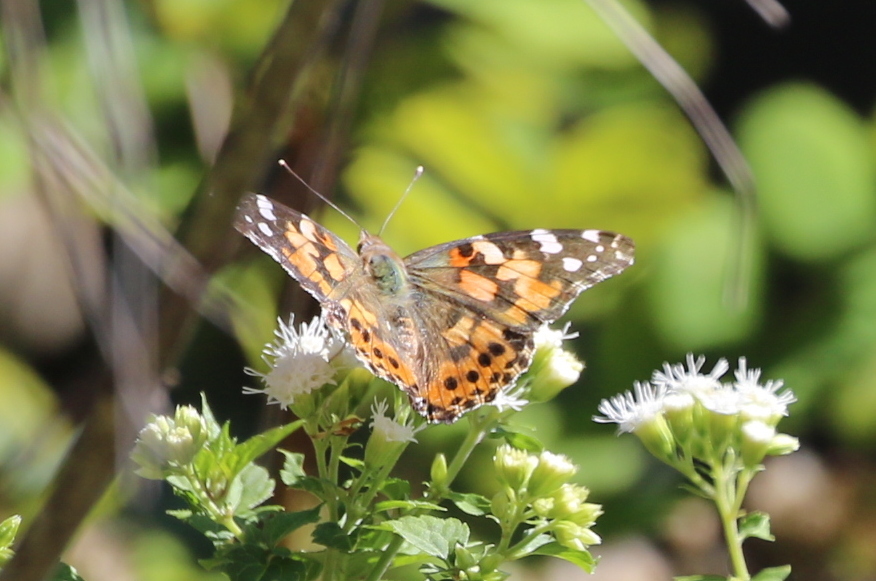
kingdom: Animalia
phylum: Arthropoda
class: Insecta
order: Lepidoptera
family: Nymphalidae
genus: Vanessa
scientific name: Vanessa cardui
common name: Painted lady
